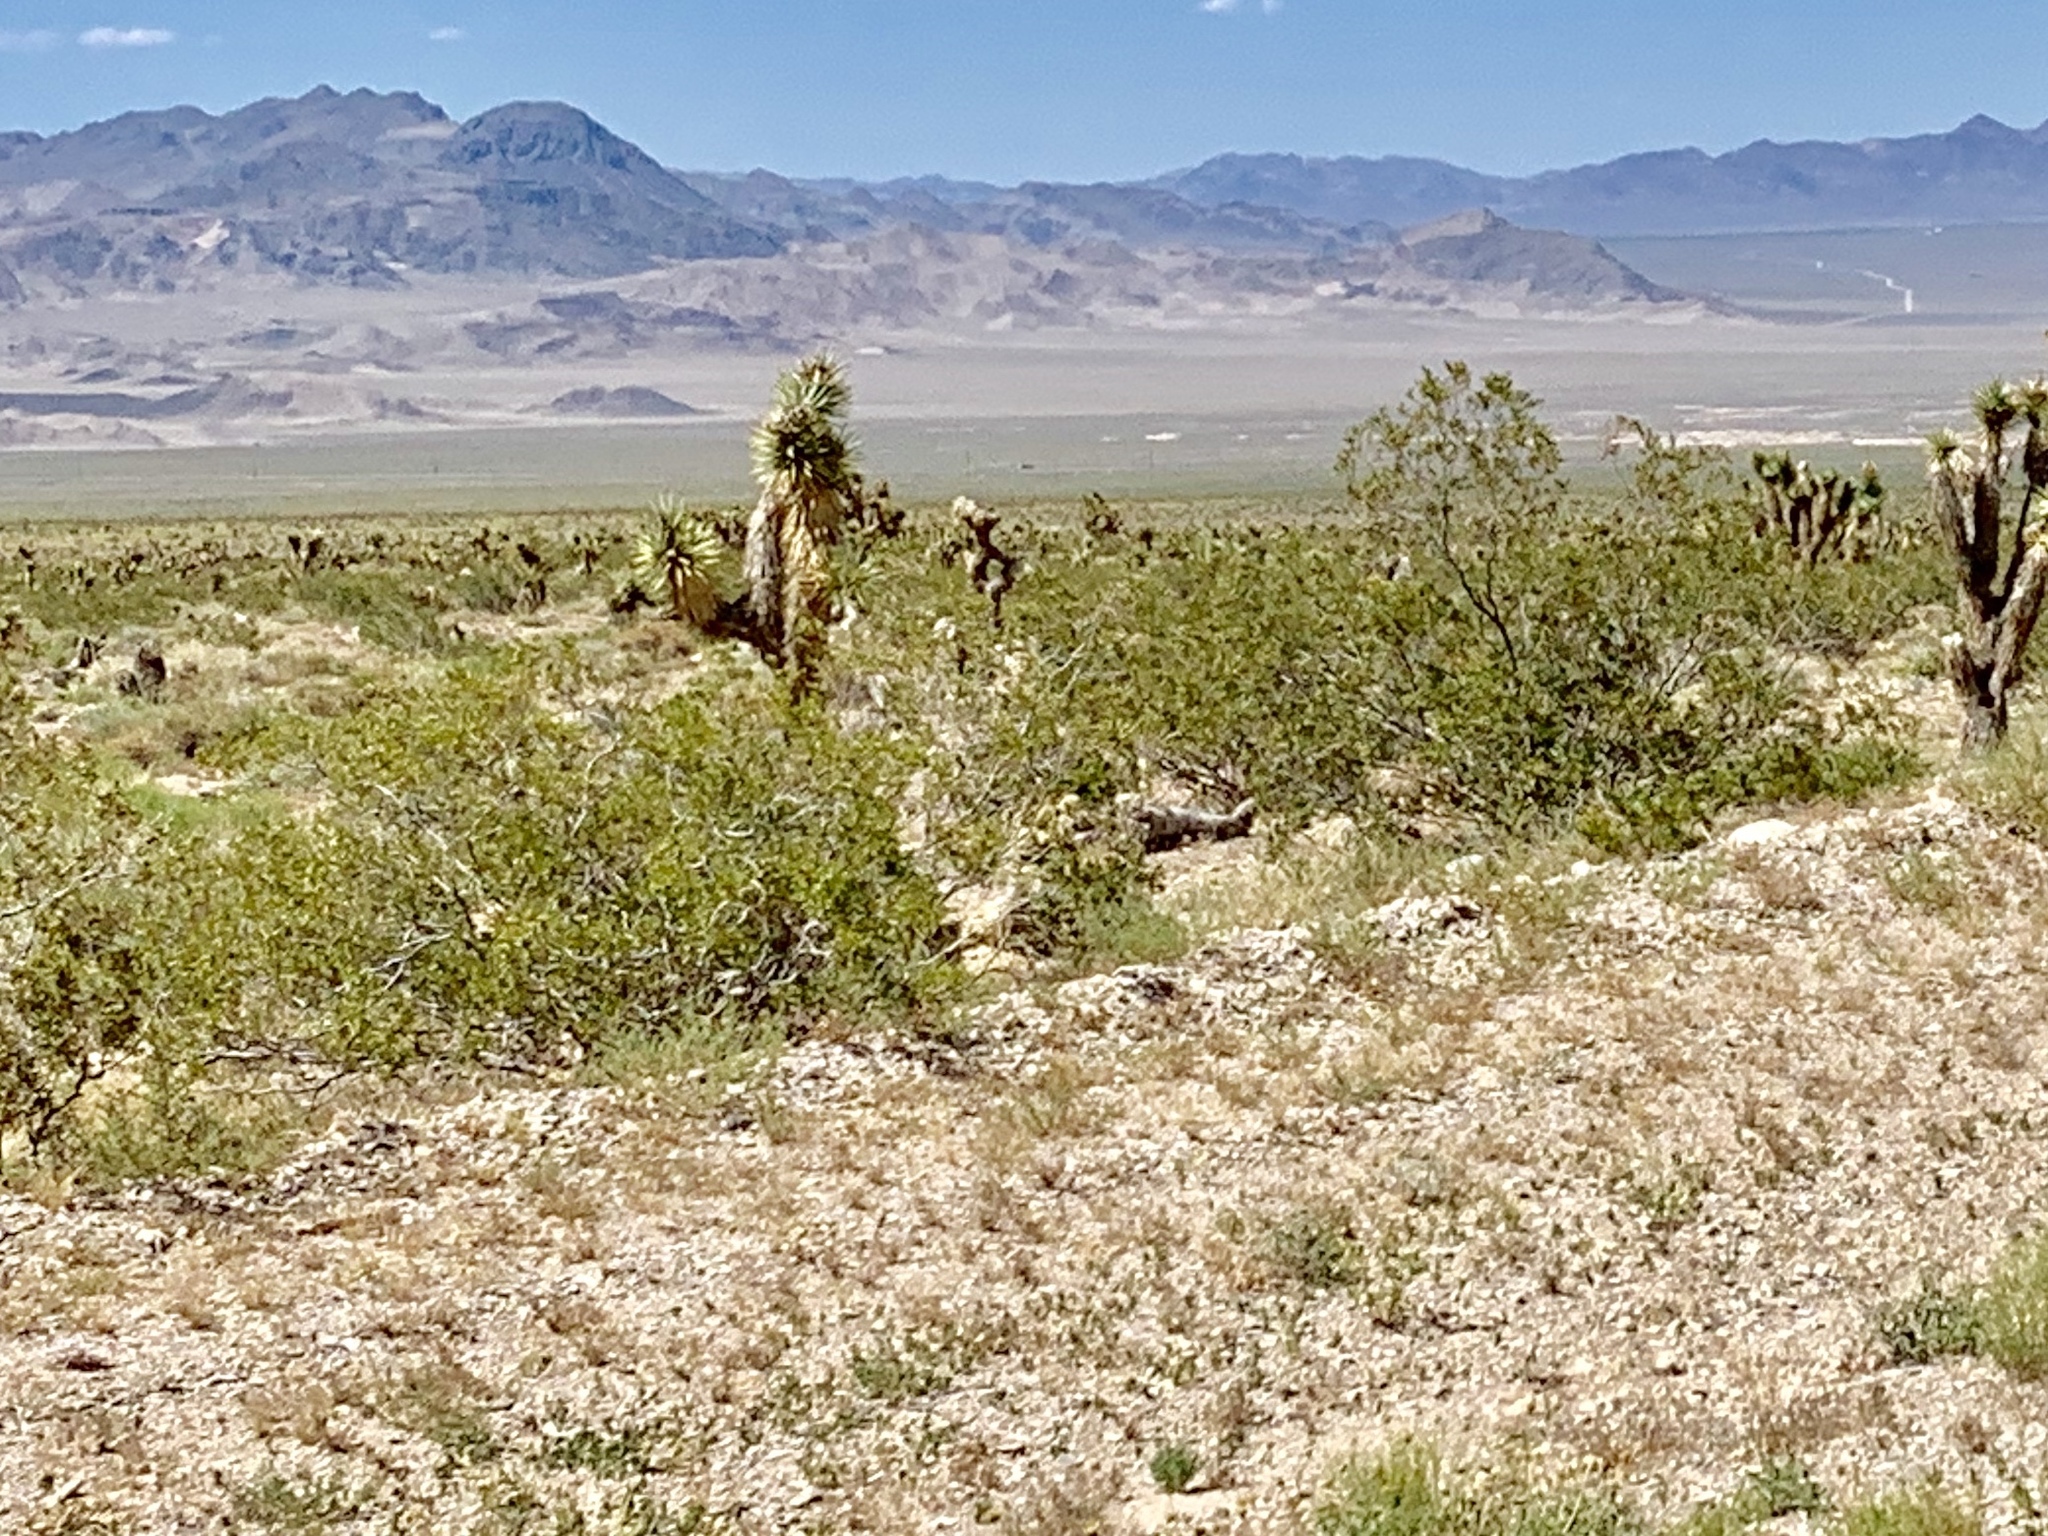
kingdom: Plantae
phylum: Tracheophyta
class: Magnoliopsida
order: Zygophyllales
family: Zygophyllaceae
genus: Larrea
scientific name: Larrea tridentata
